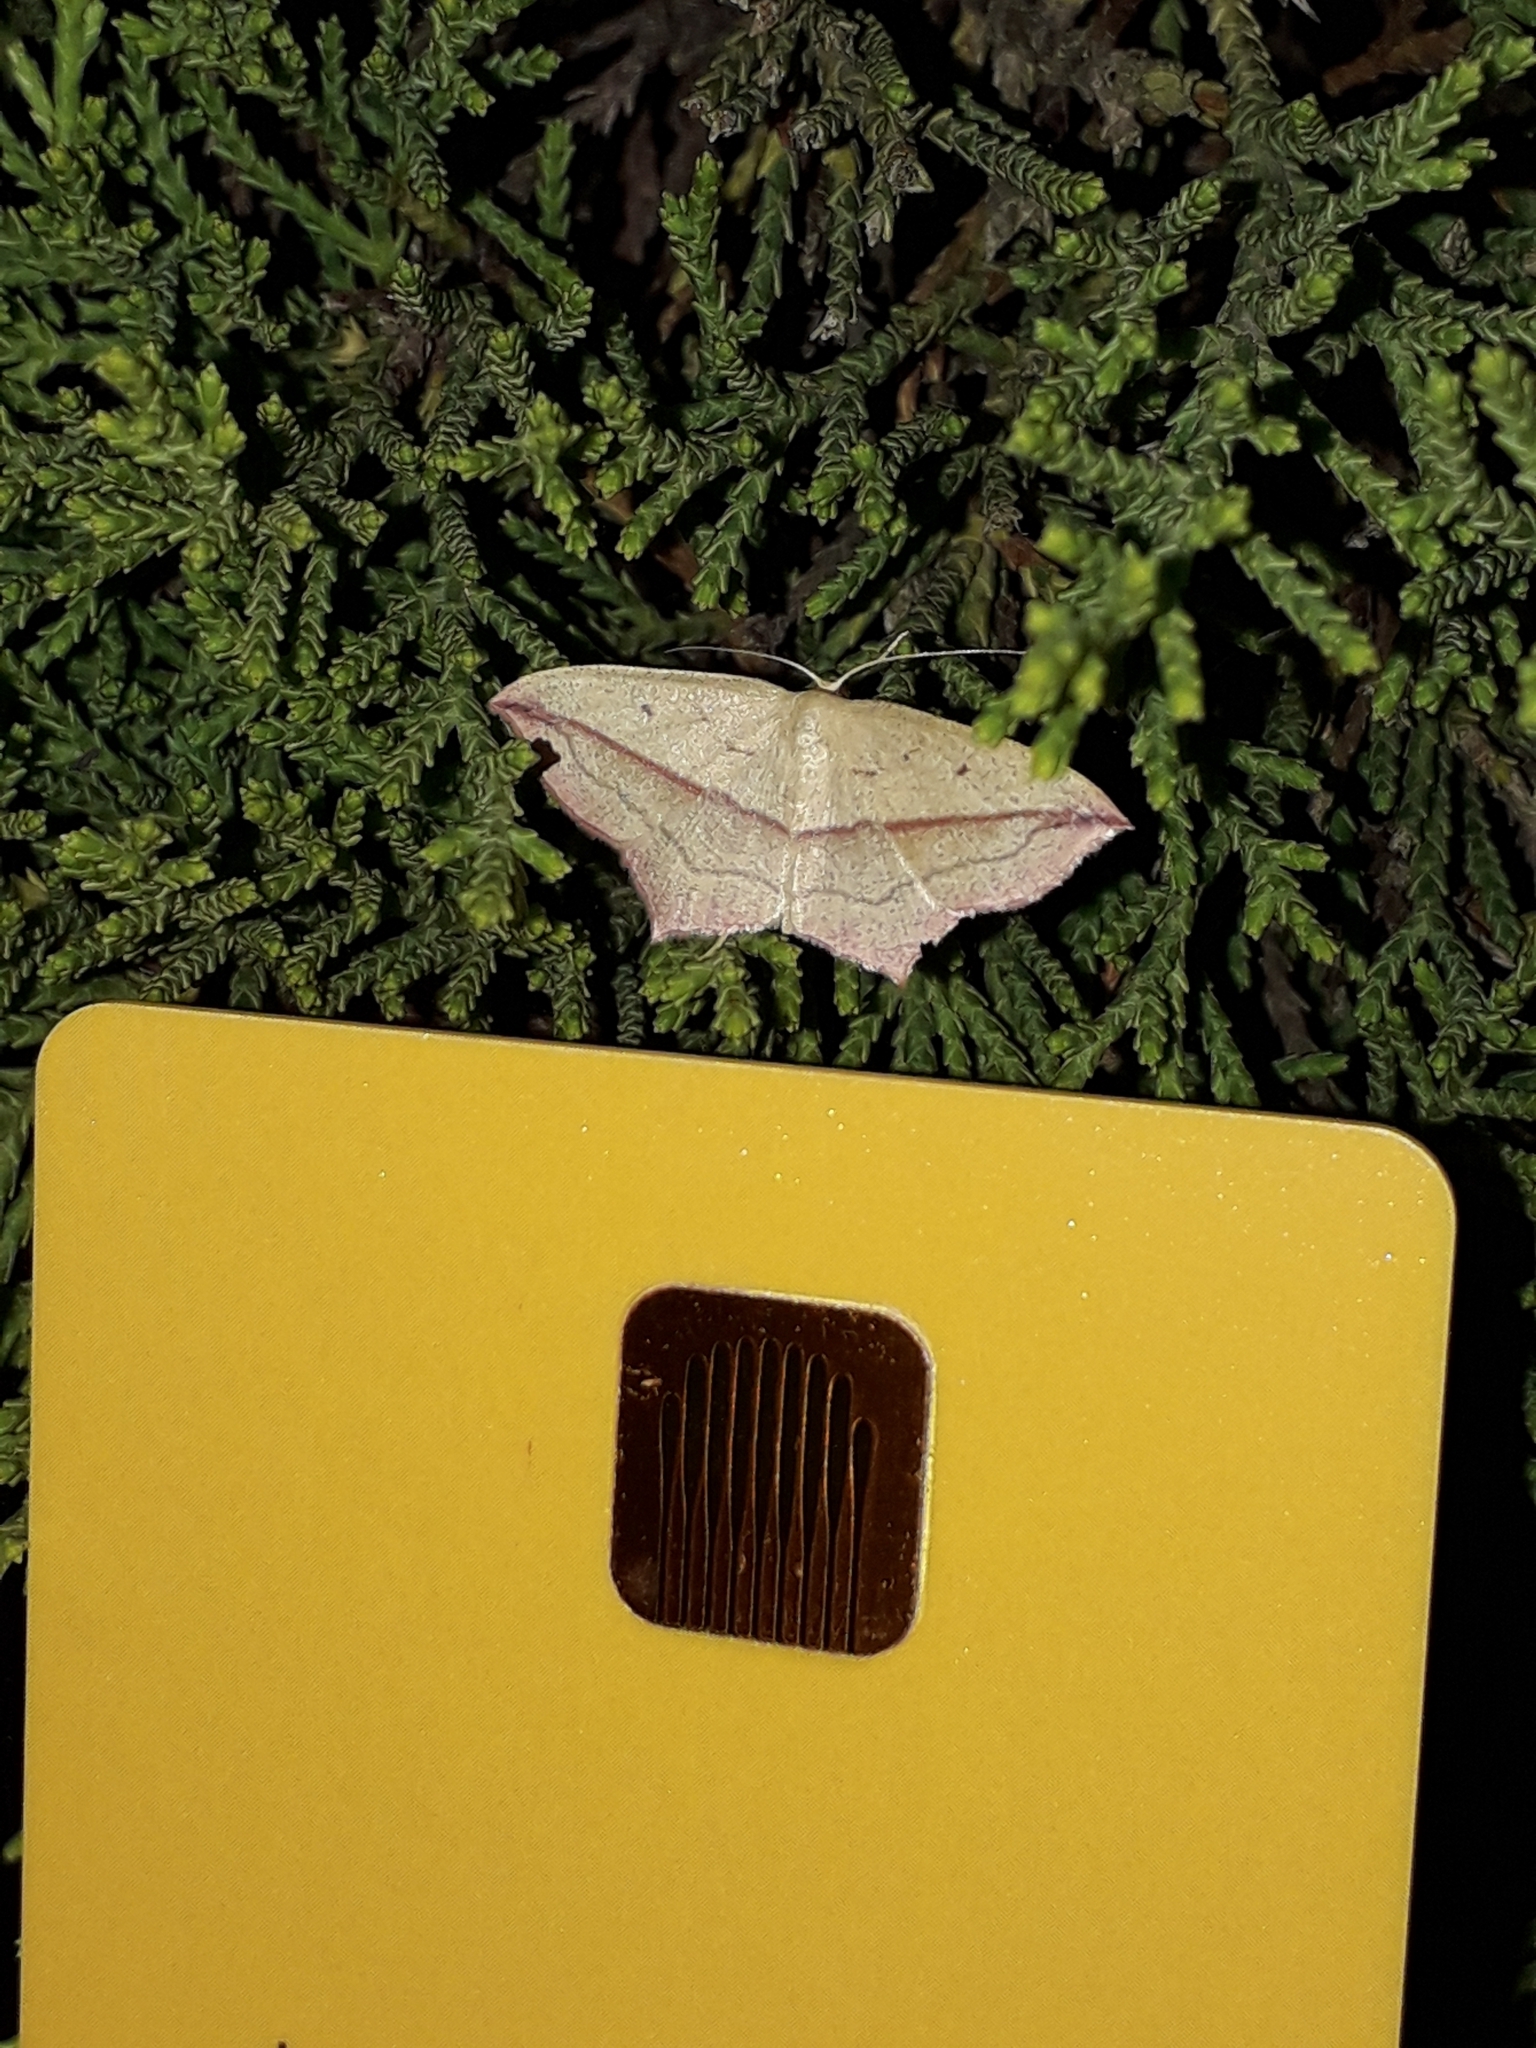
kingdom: Animalia
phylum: Arthropoda
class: Insecta
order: Lepidoptera
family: Geometridae
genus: Timandra
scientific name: Timandra comae
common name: Blood-vein
